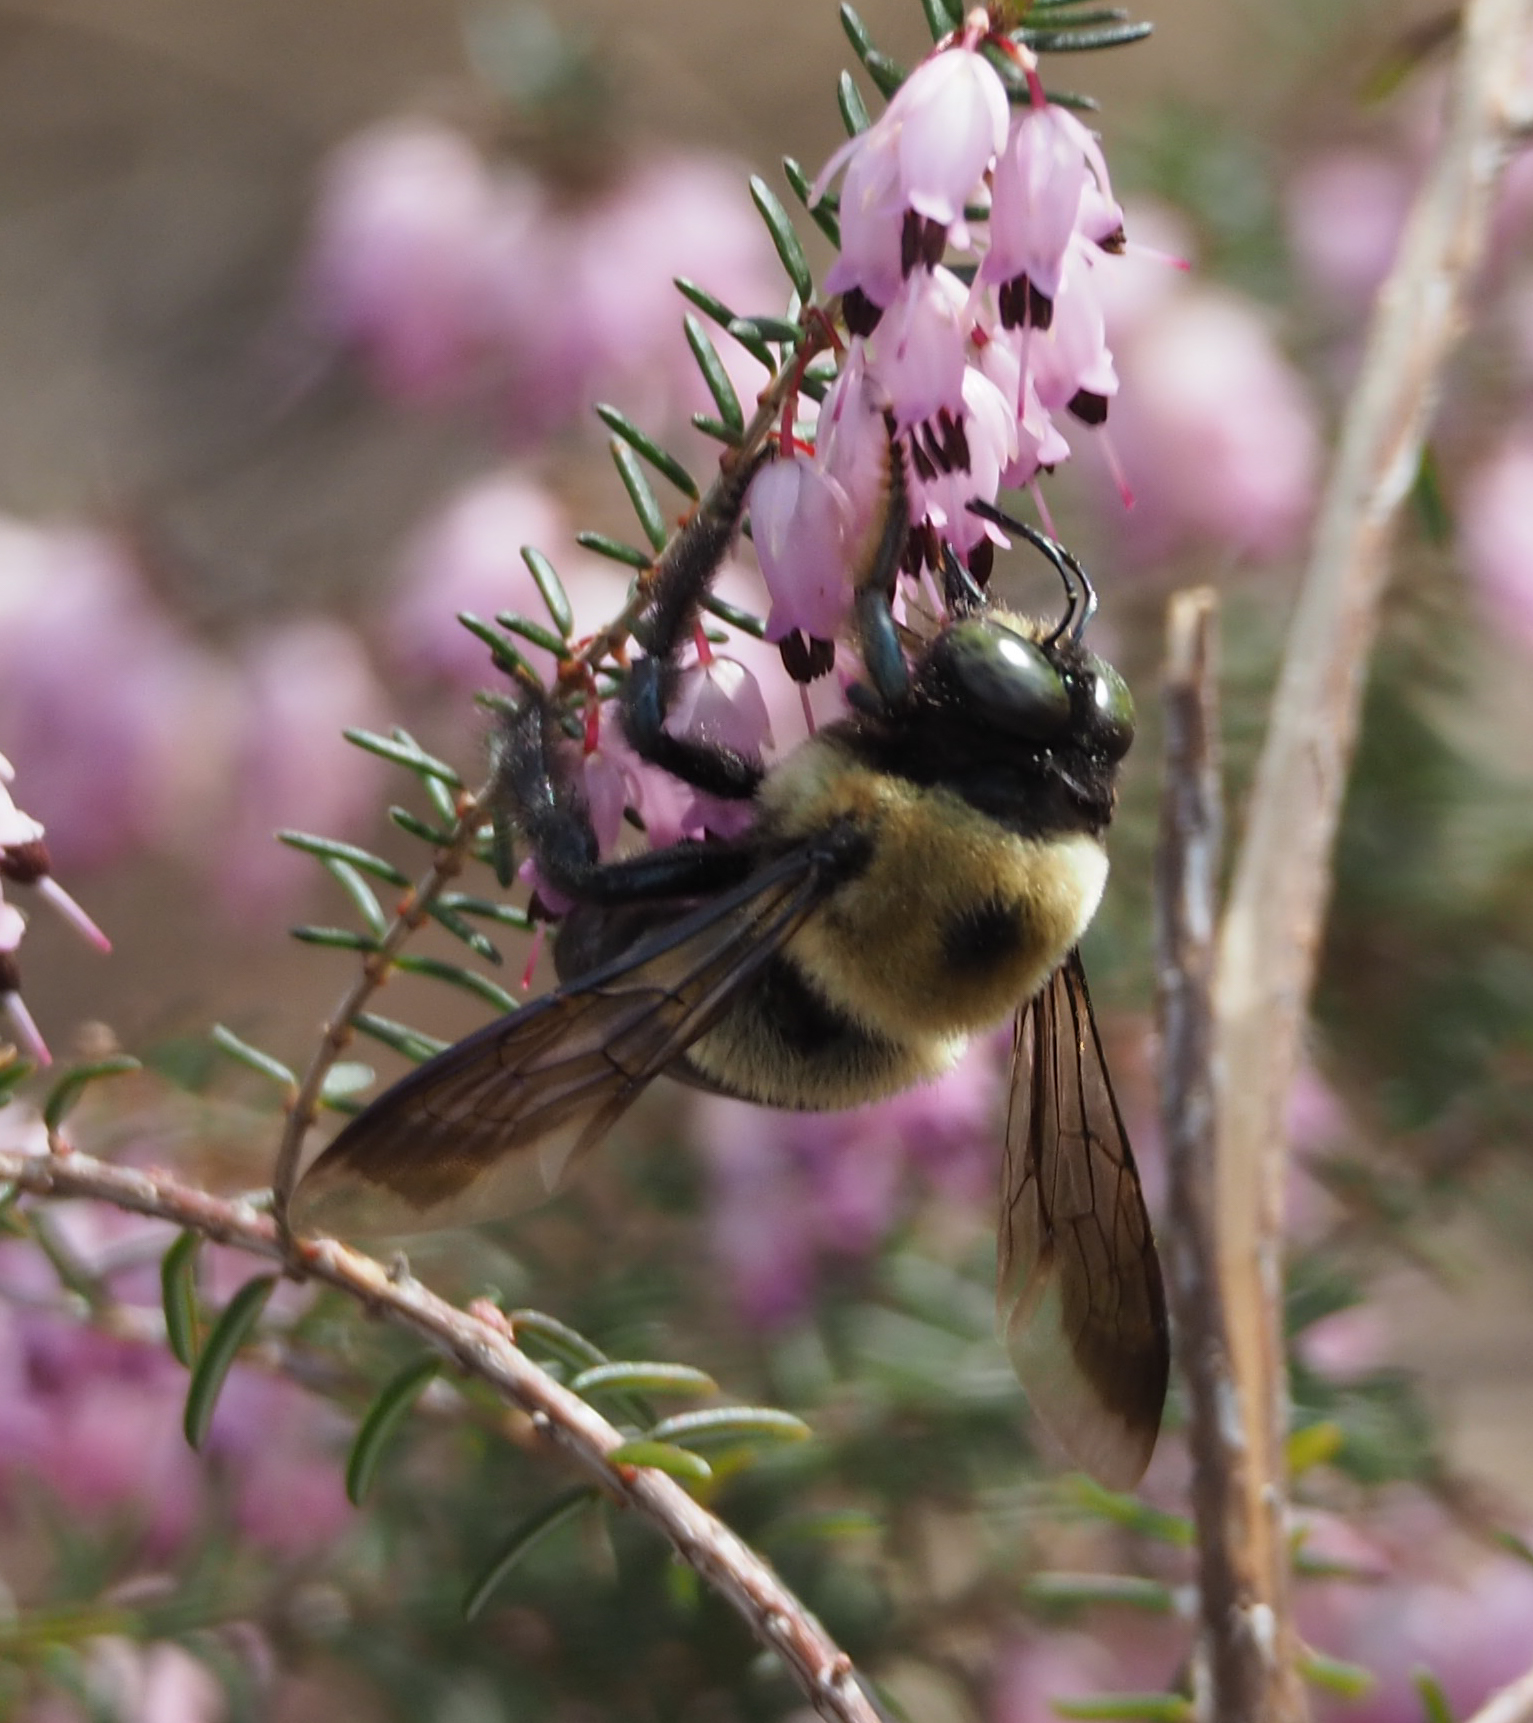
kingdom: Animalia
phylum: Arthropoda
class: Insecta
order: Hymenoptera
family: Apidae
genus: Xylocopa
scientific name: Xylocopa virginica
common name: Carpenter bee
